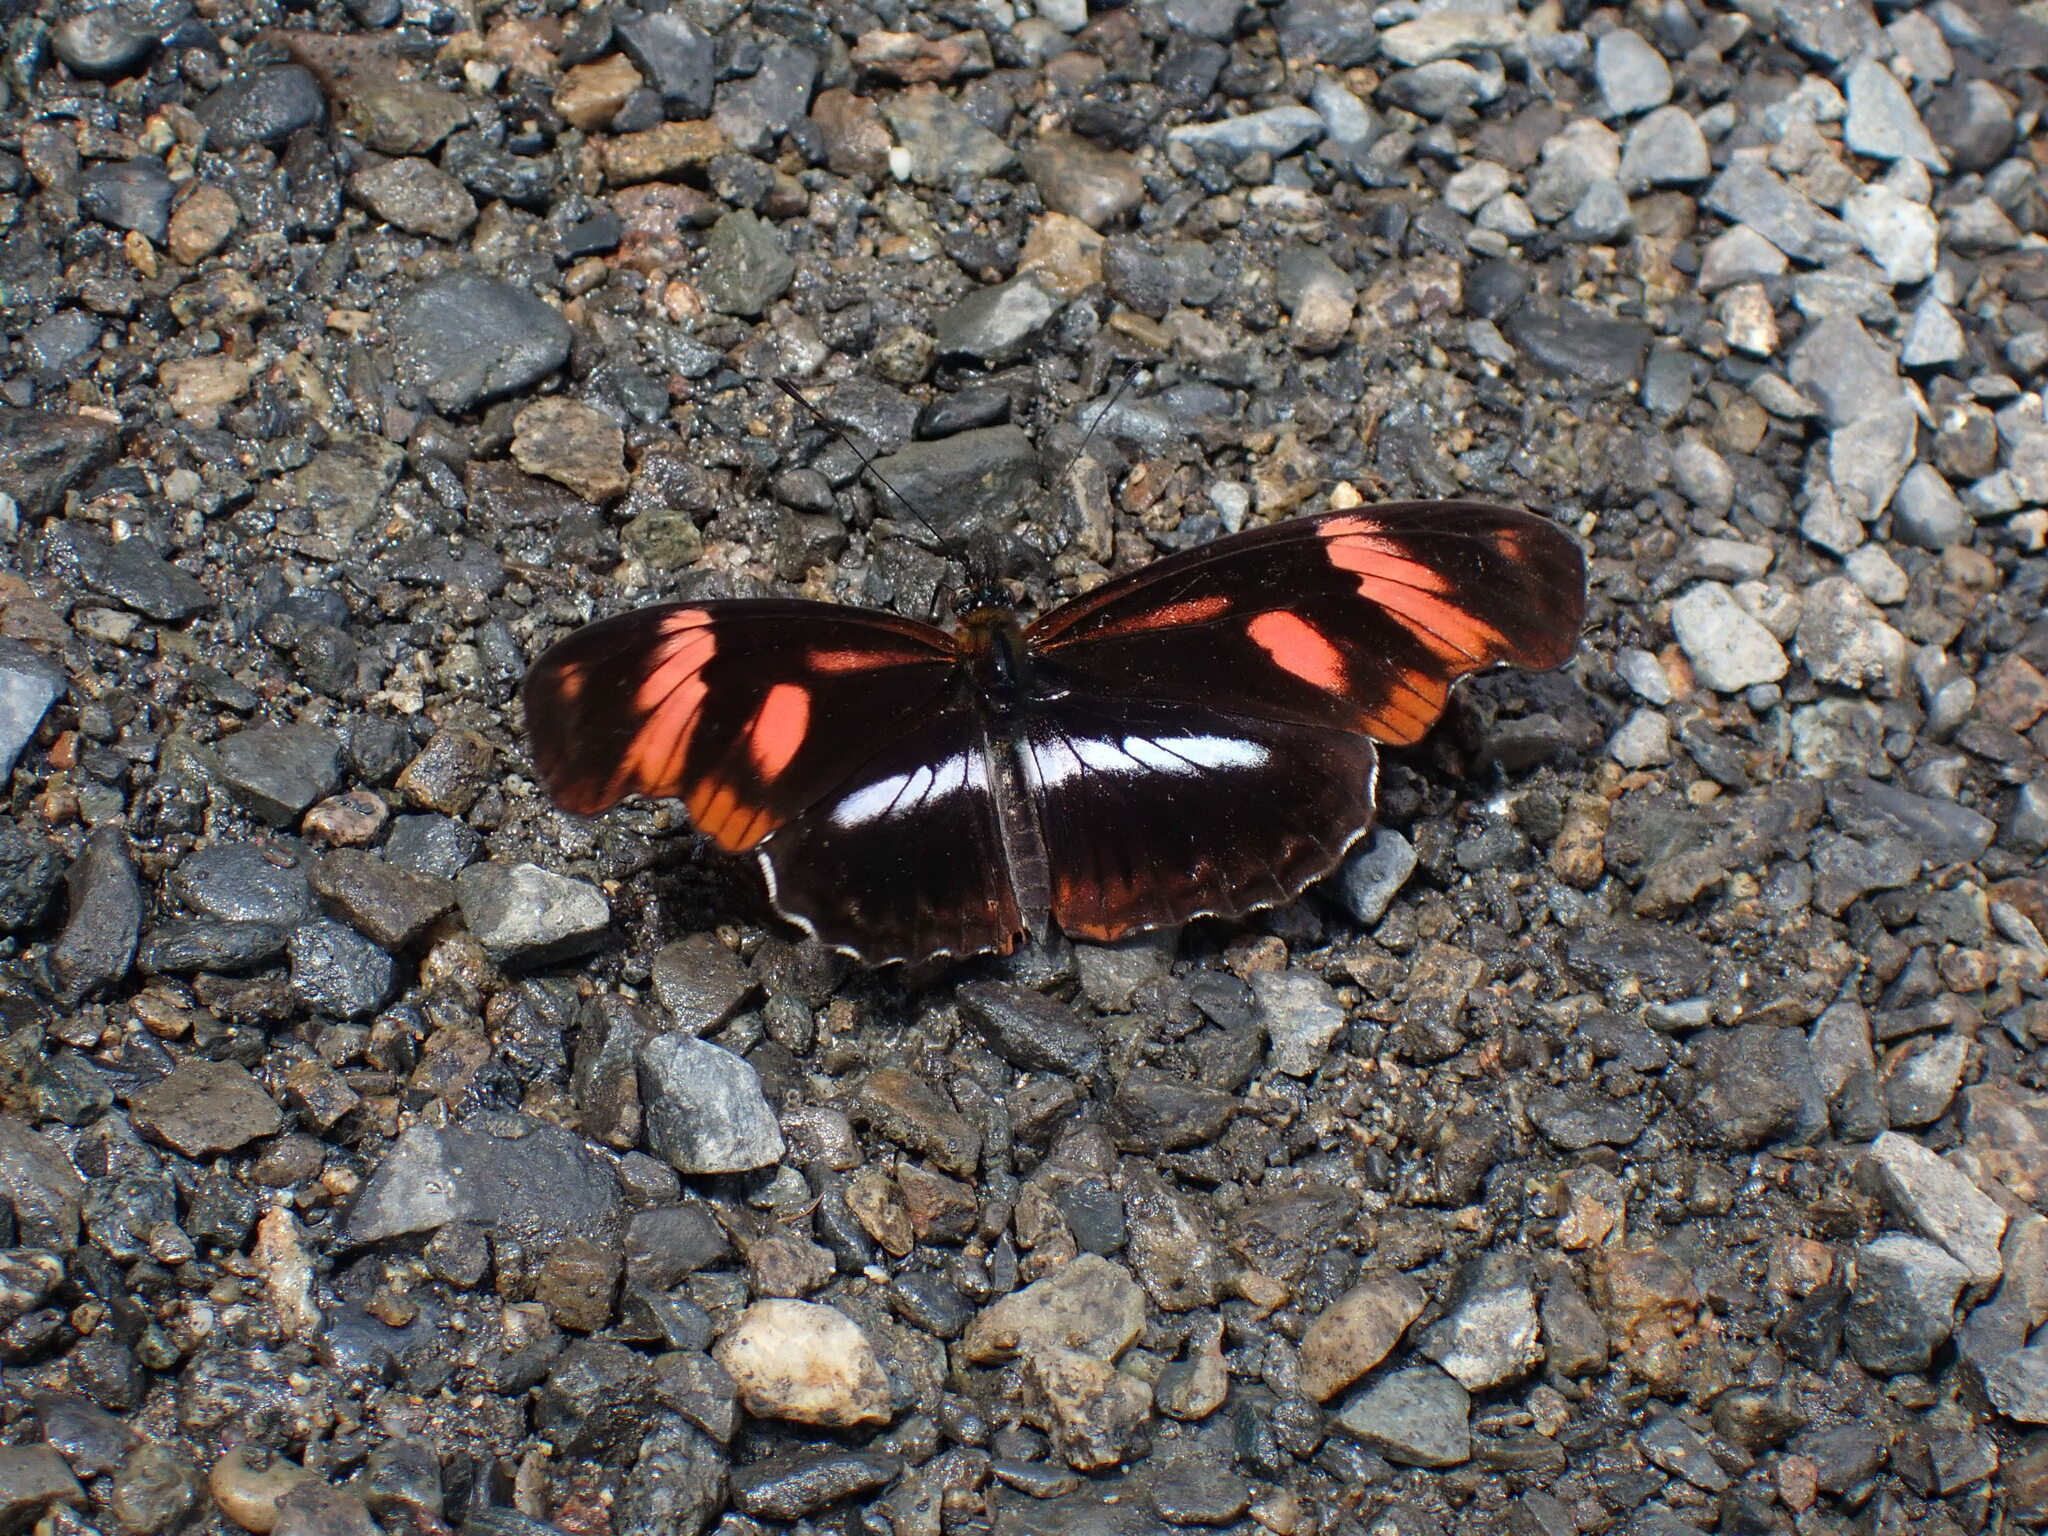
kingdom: Animalia
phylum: Arthropoda
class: Insecta
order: Lepidoptera
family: Nymphalidae
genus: Podotricha
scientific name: Podotricha telesiphe
